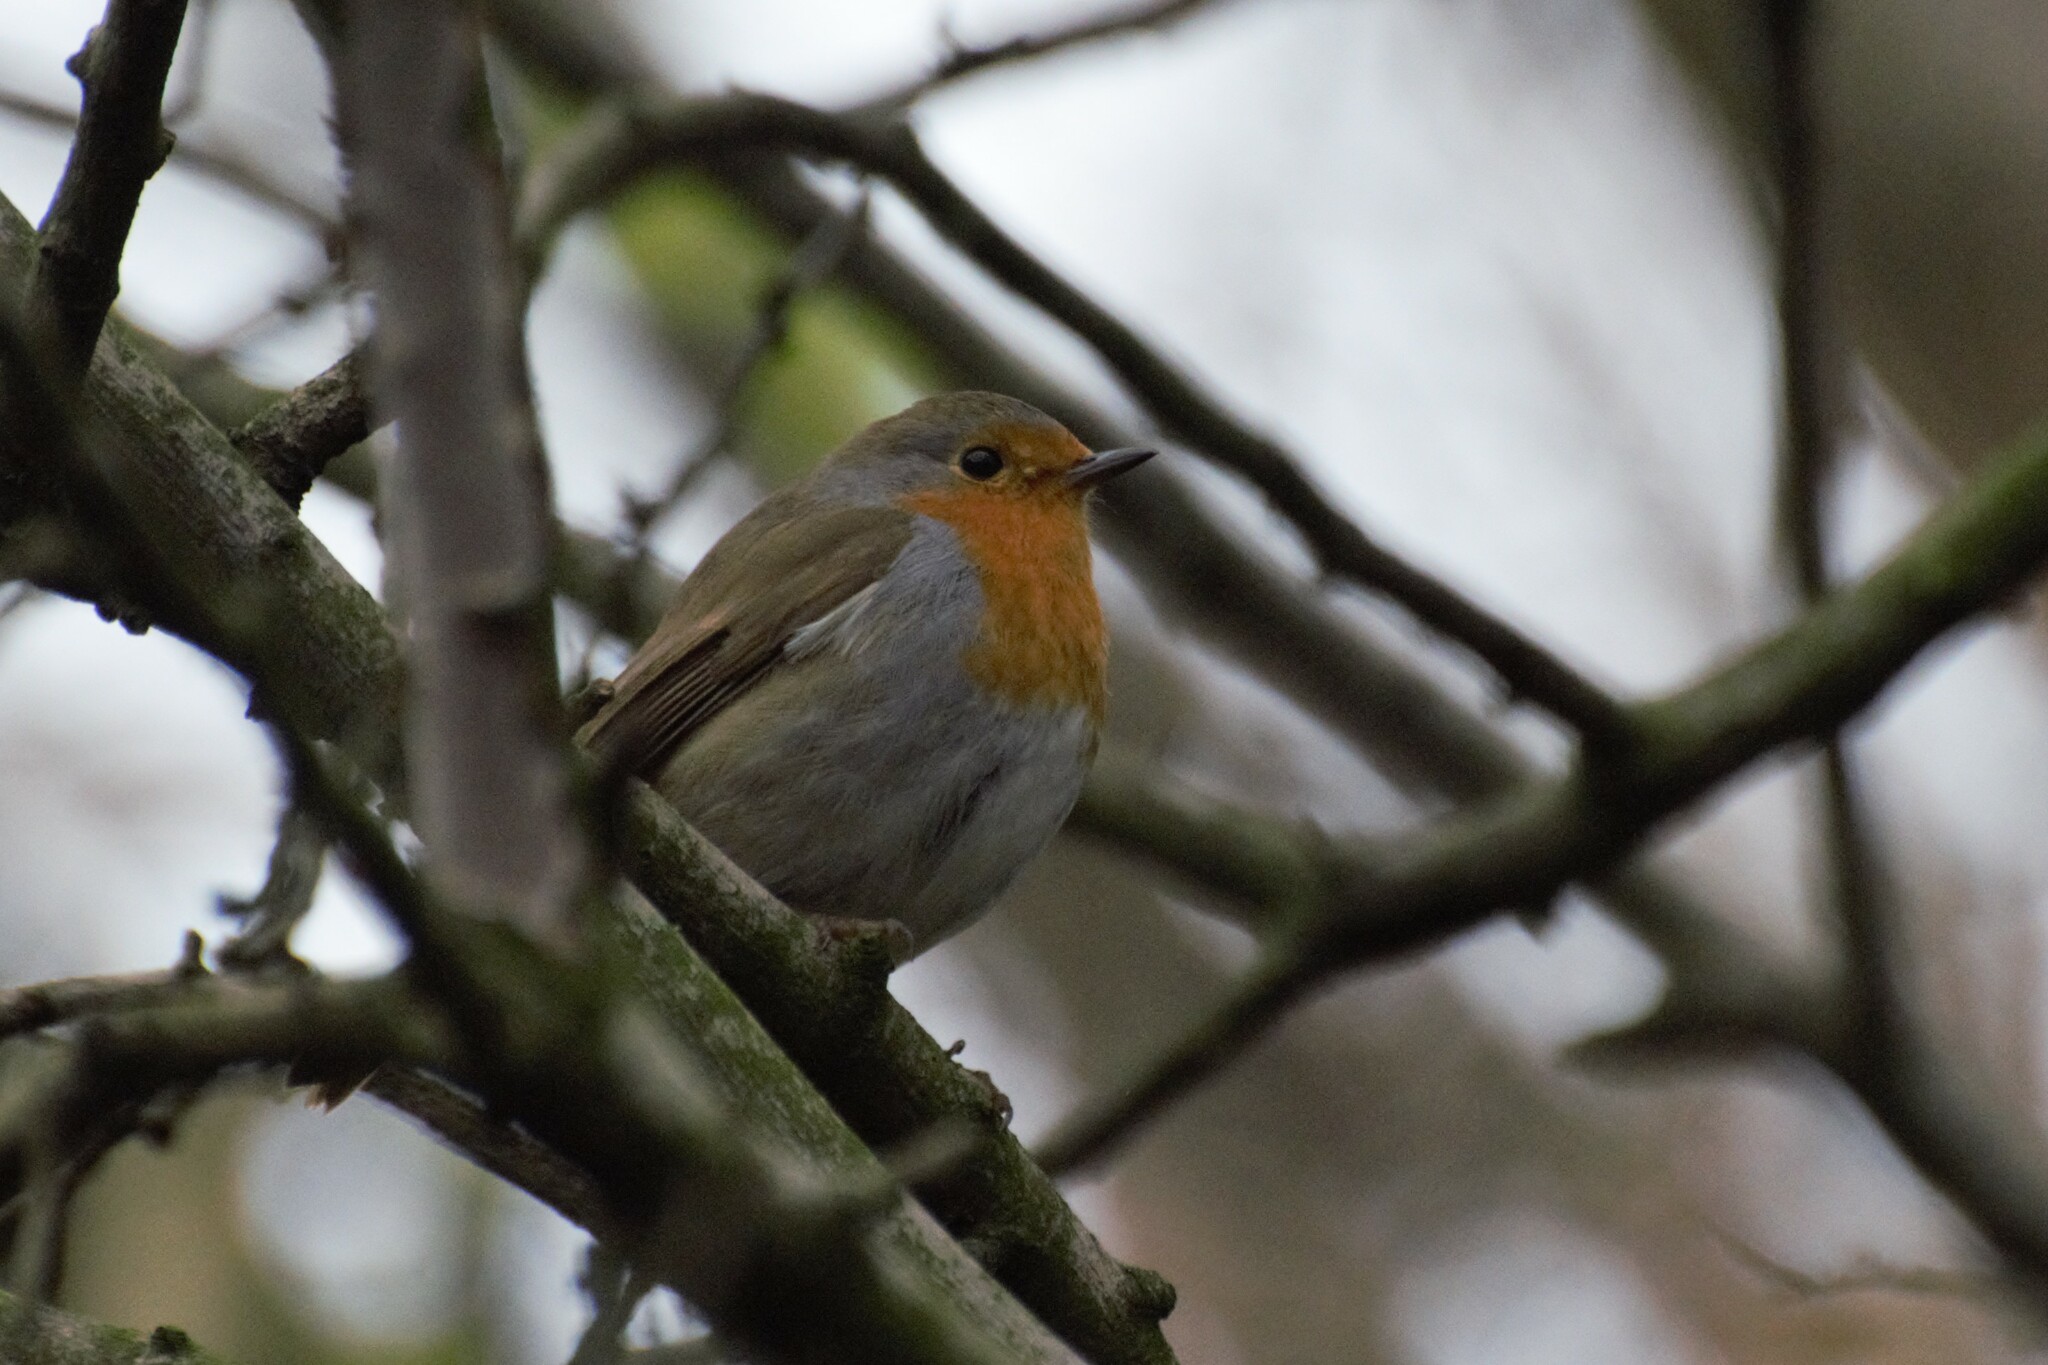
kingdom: Animalia
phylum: Chordata
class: Aves
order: Passeriformes
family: Muscicapidae
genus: Erithacus
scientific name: Erithacus rubecula
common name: European robin
